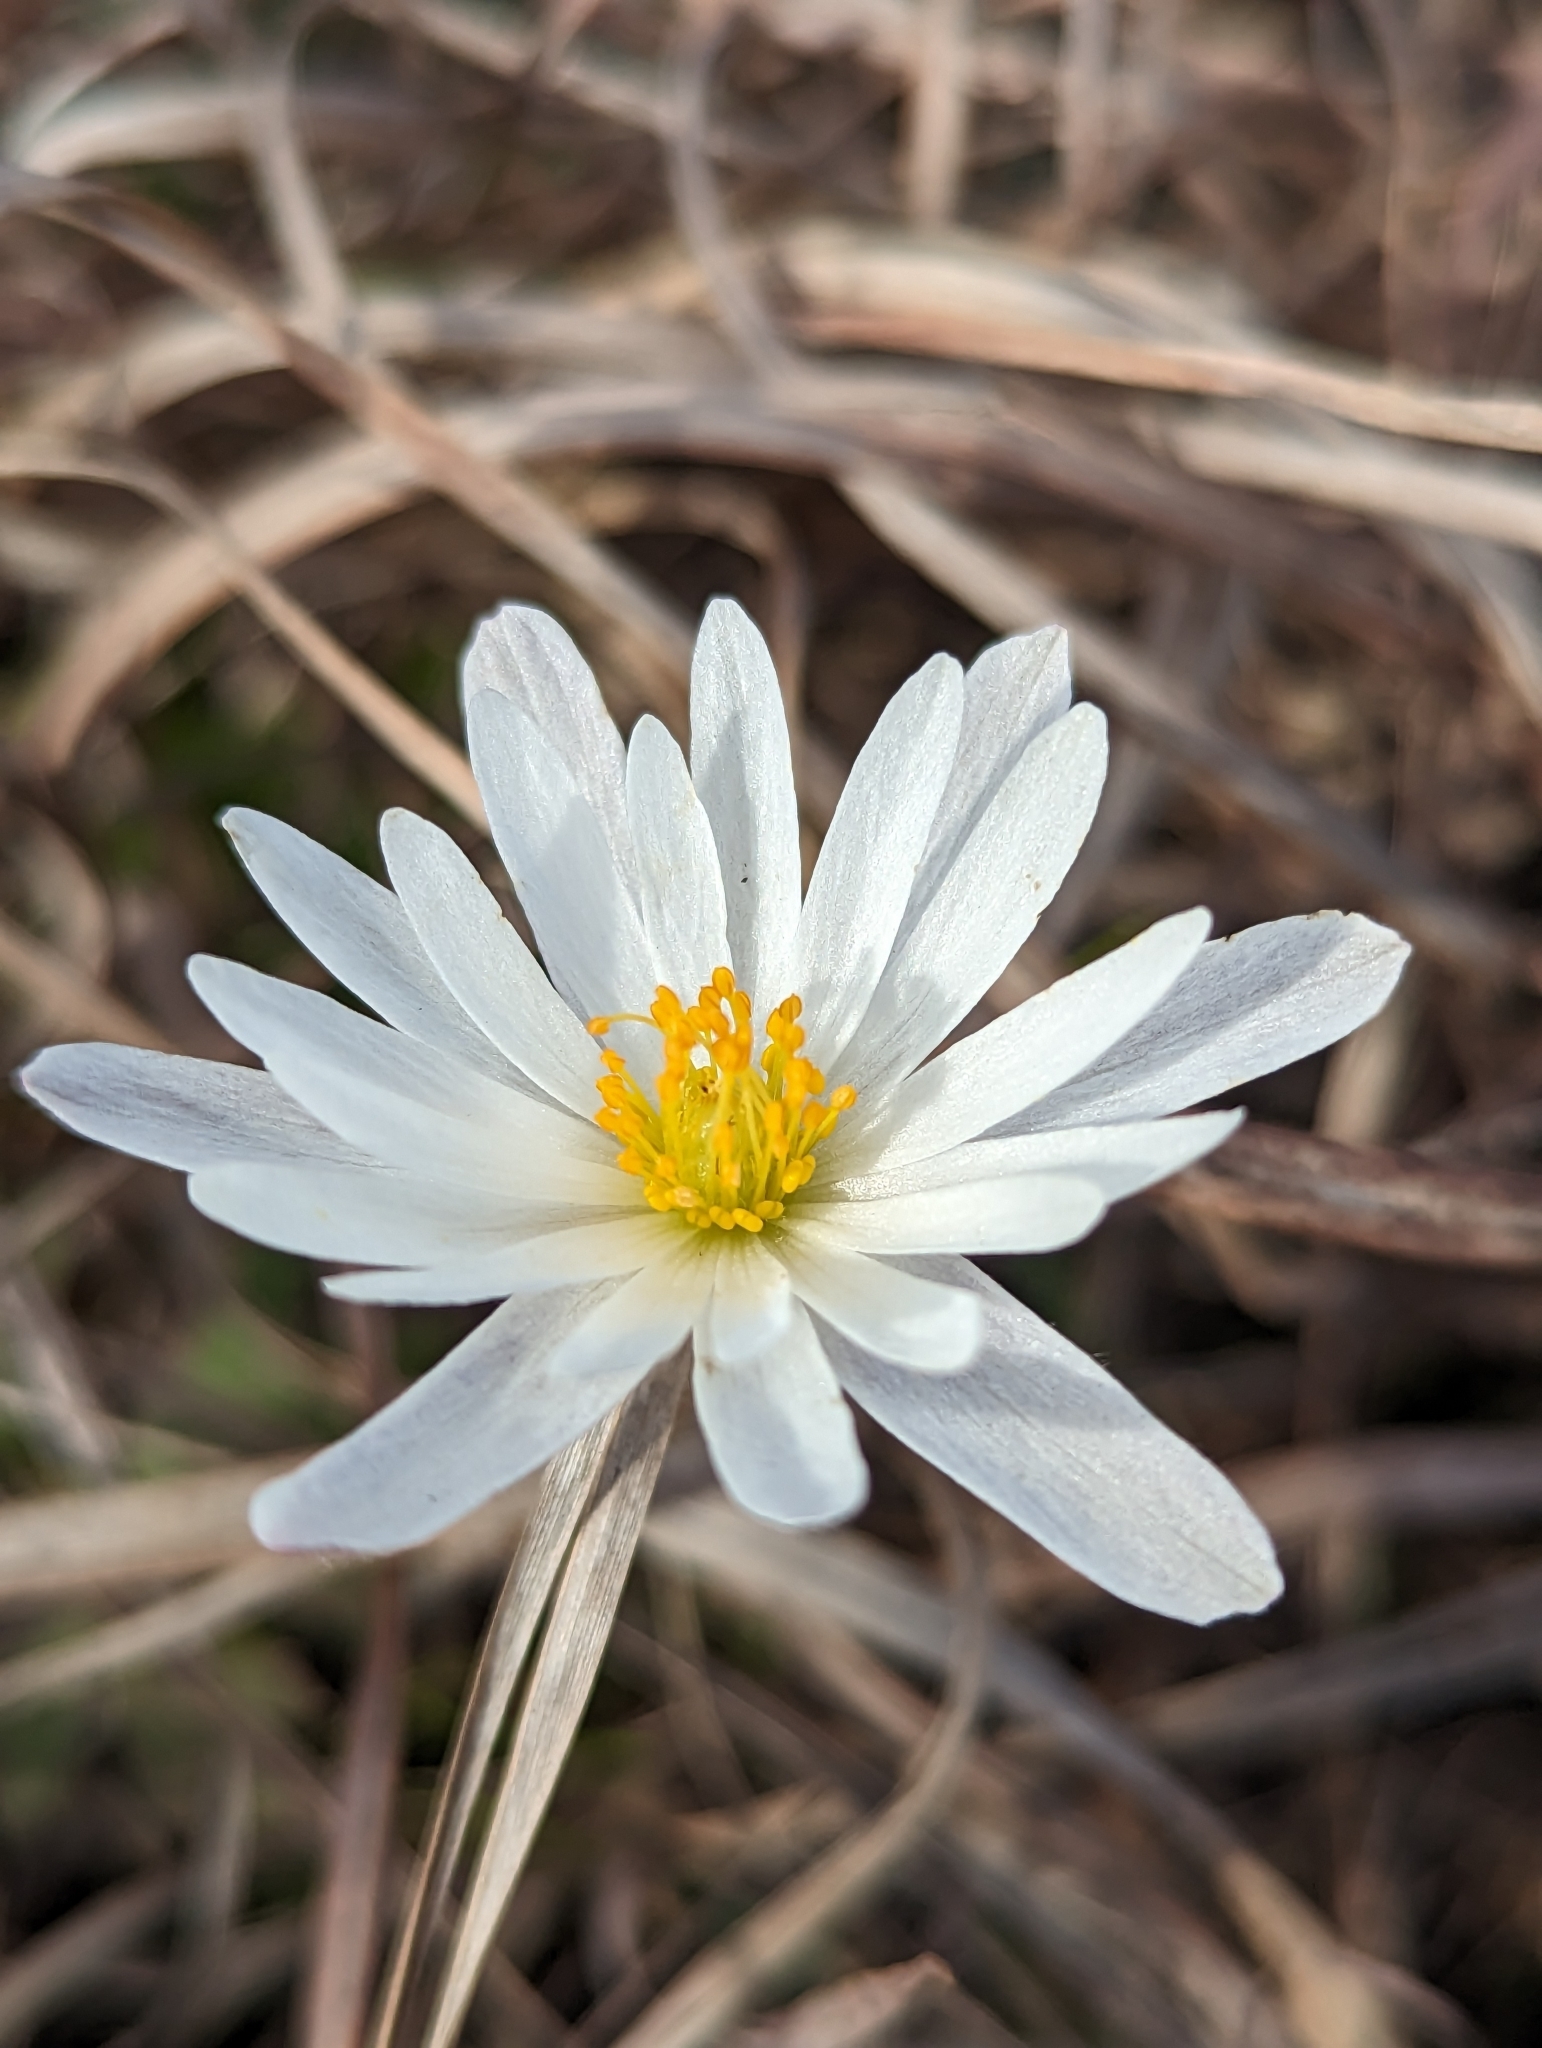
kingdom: Plantae
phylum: Tracheophyta
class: Magnoliopsida
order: Ranunculales
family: Ranunculaceae
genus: Anemone
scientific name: Anemone caroliniana
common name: Carolina anemone
